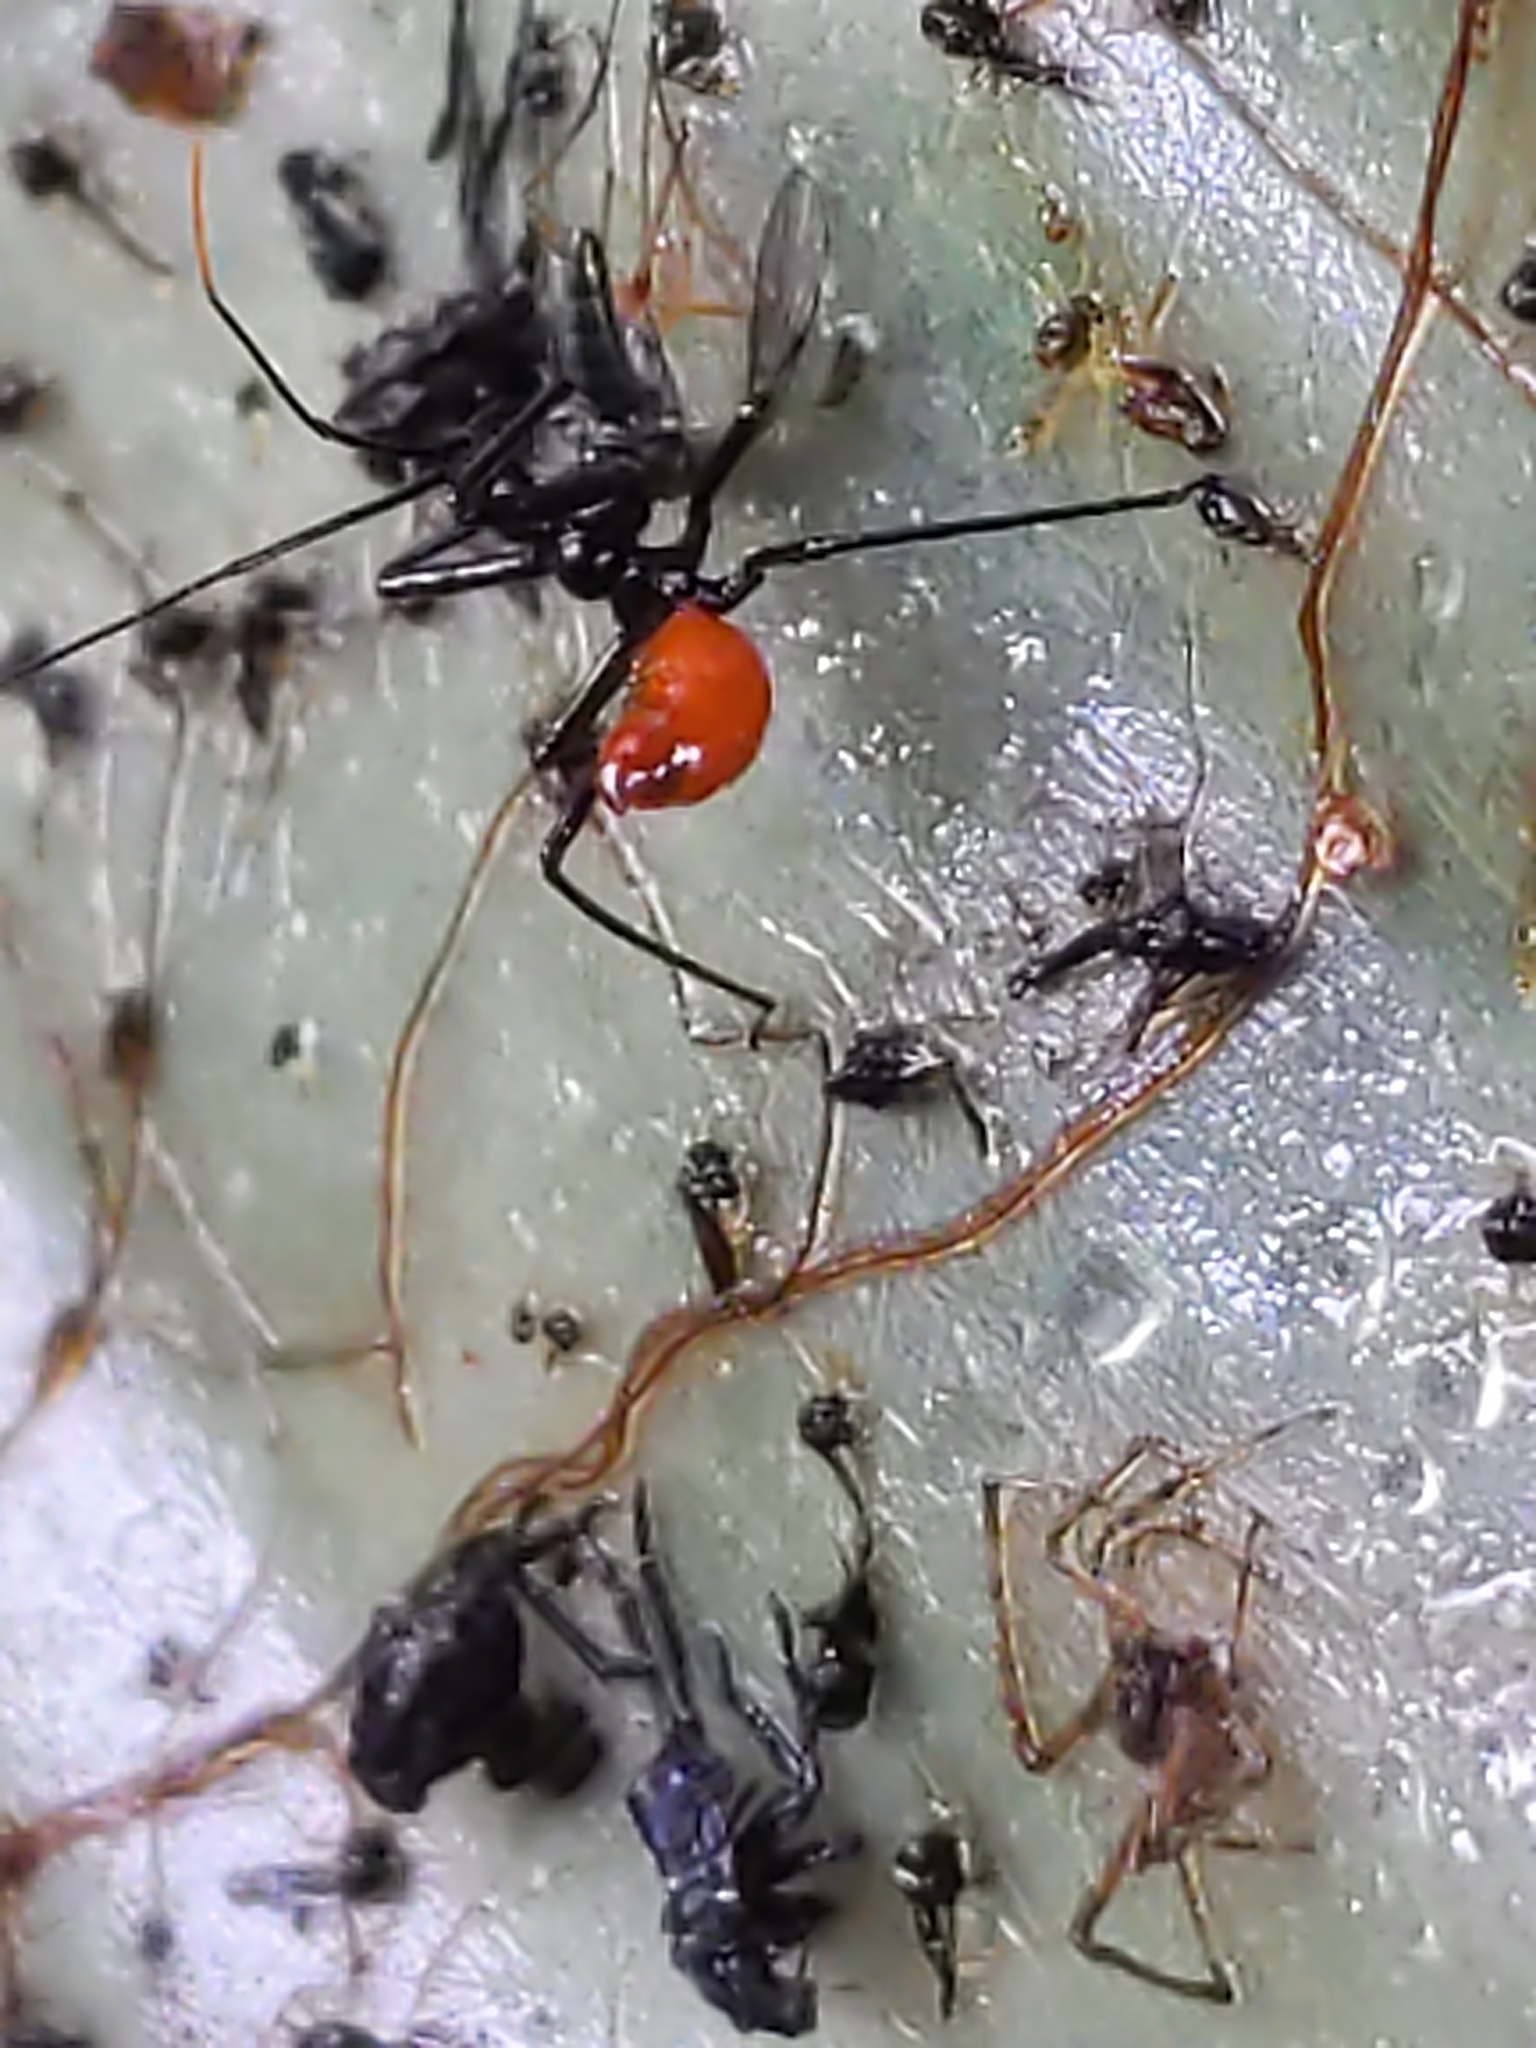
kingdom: Animalia
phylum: Arthropoda
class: Insecta
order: Hemiptera
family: Reduviidae
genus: Arilus
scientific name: Arilus cristatus
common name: North american wheel bug
